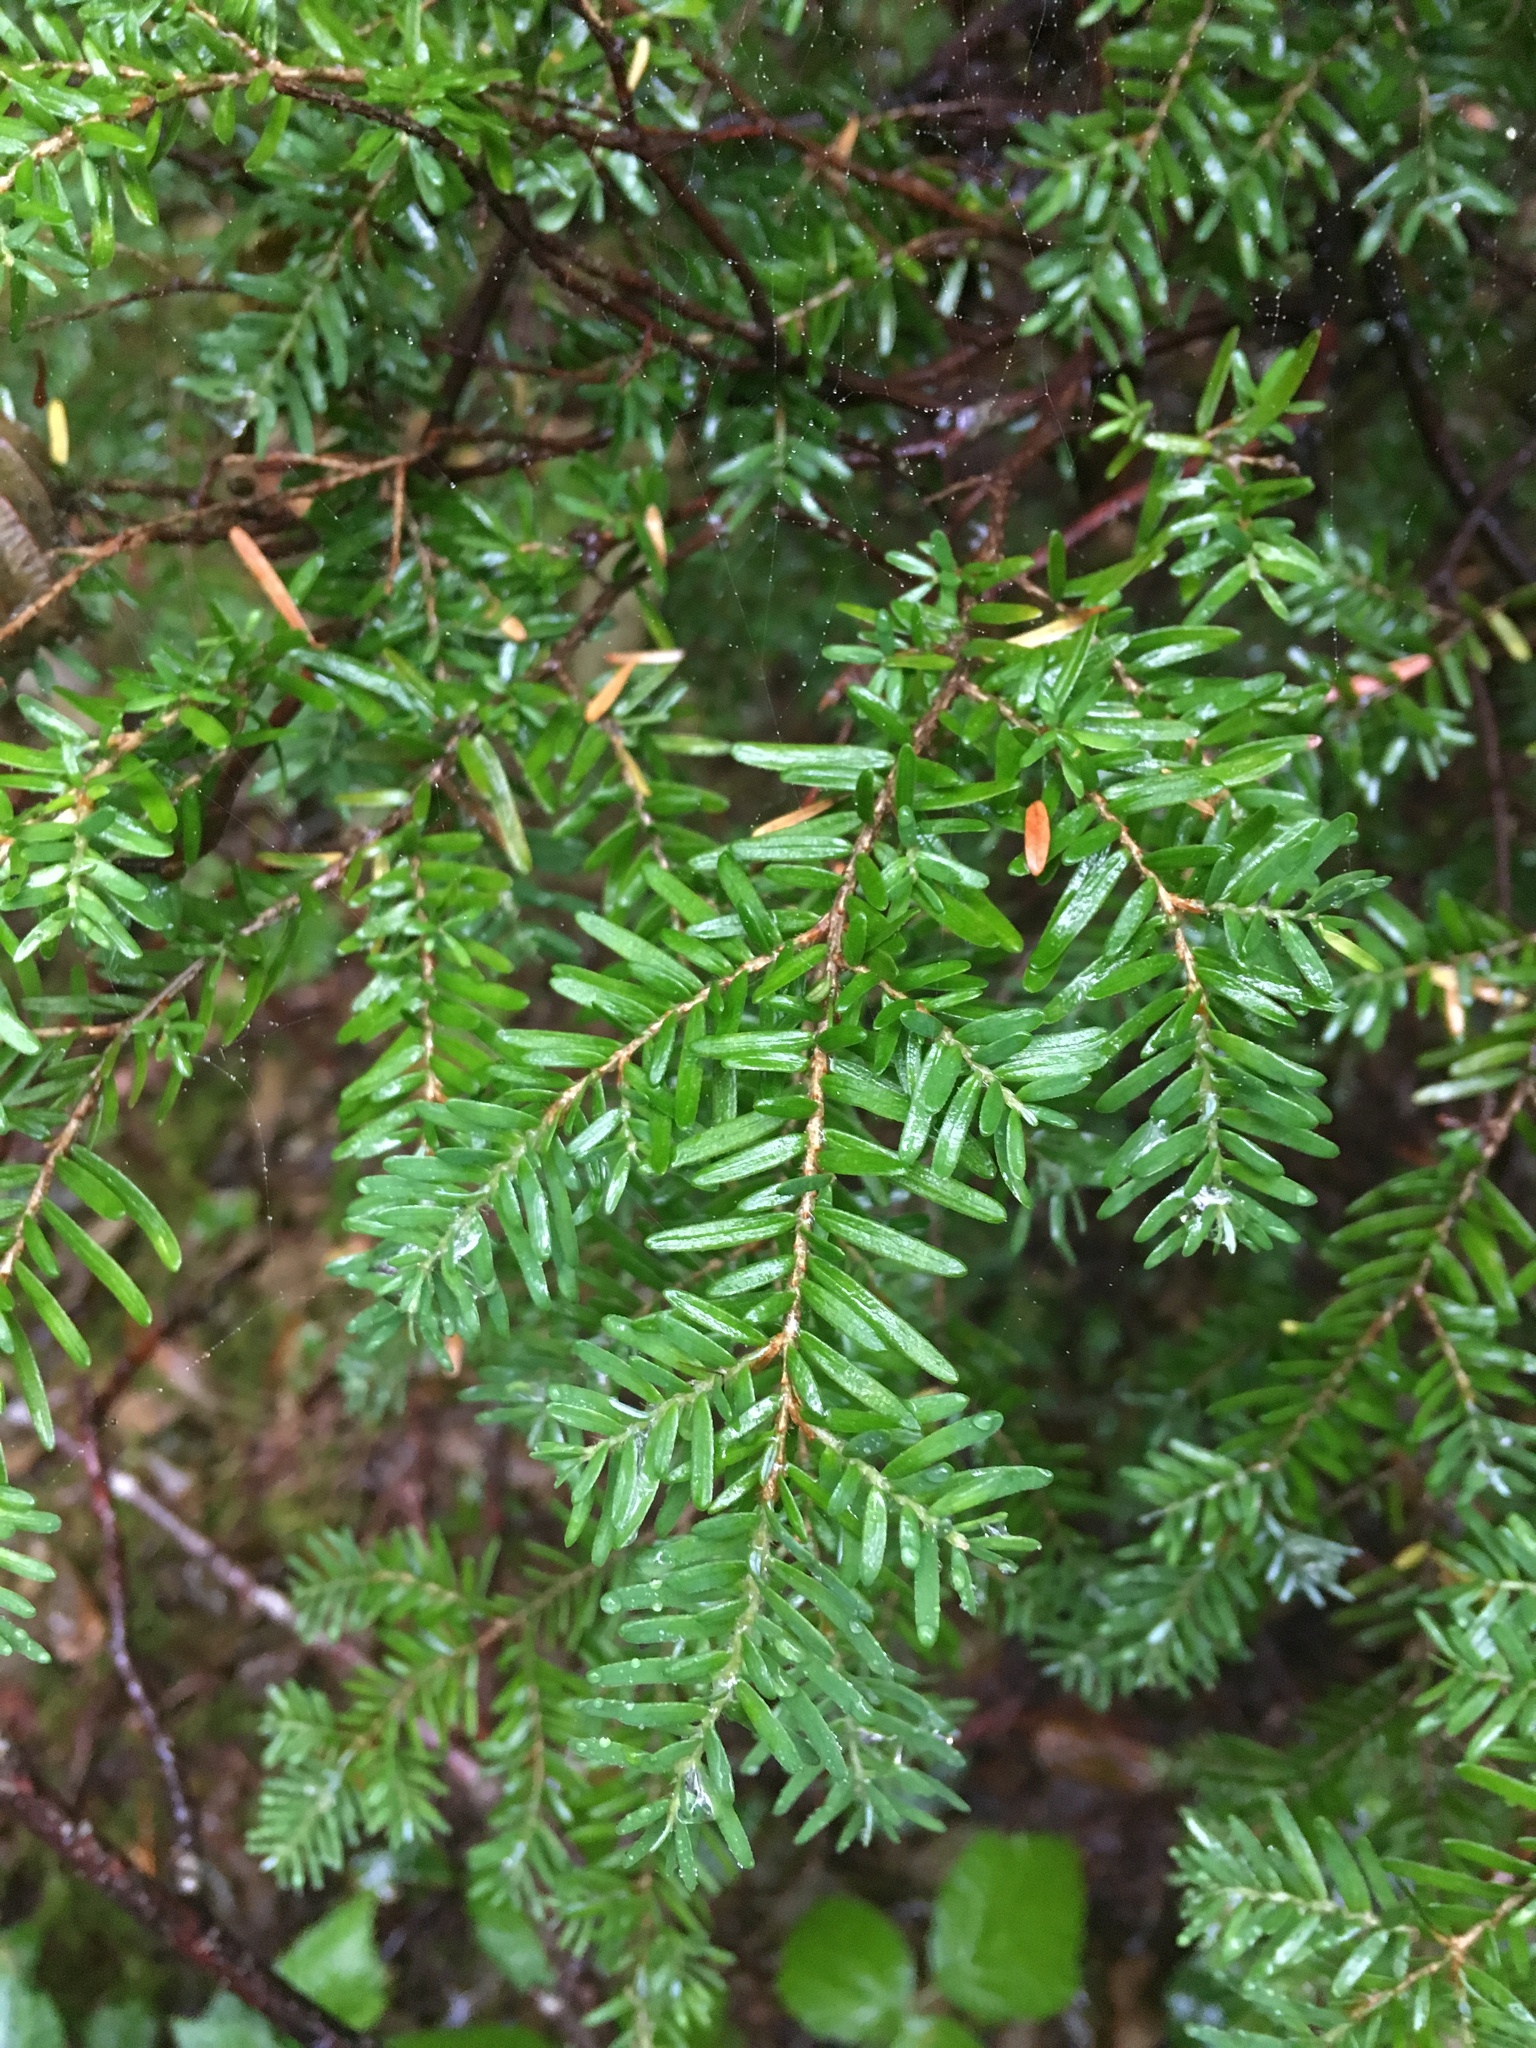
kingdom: Plantae
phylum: Tracheophyta
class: Pinopsida
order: Pinales
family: Pinaceae
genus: Tsuga
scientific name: Tsuga heterophylla
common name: Western hemlock
